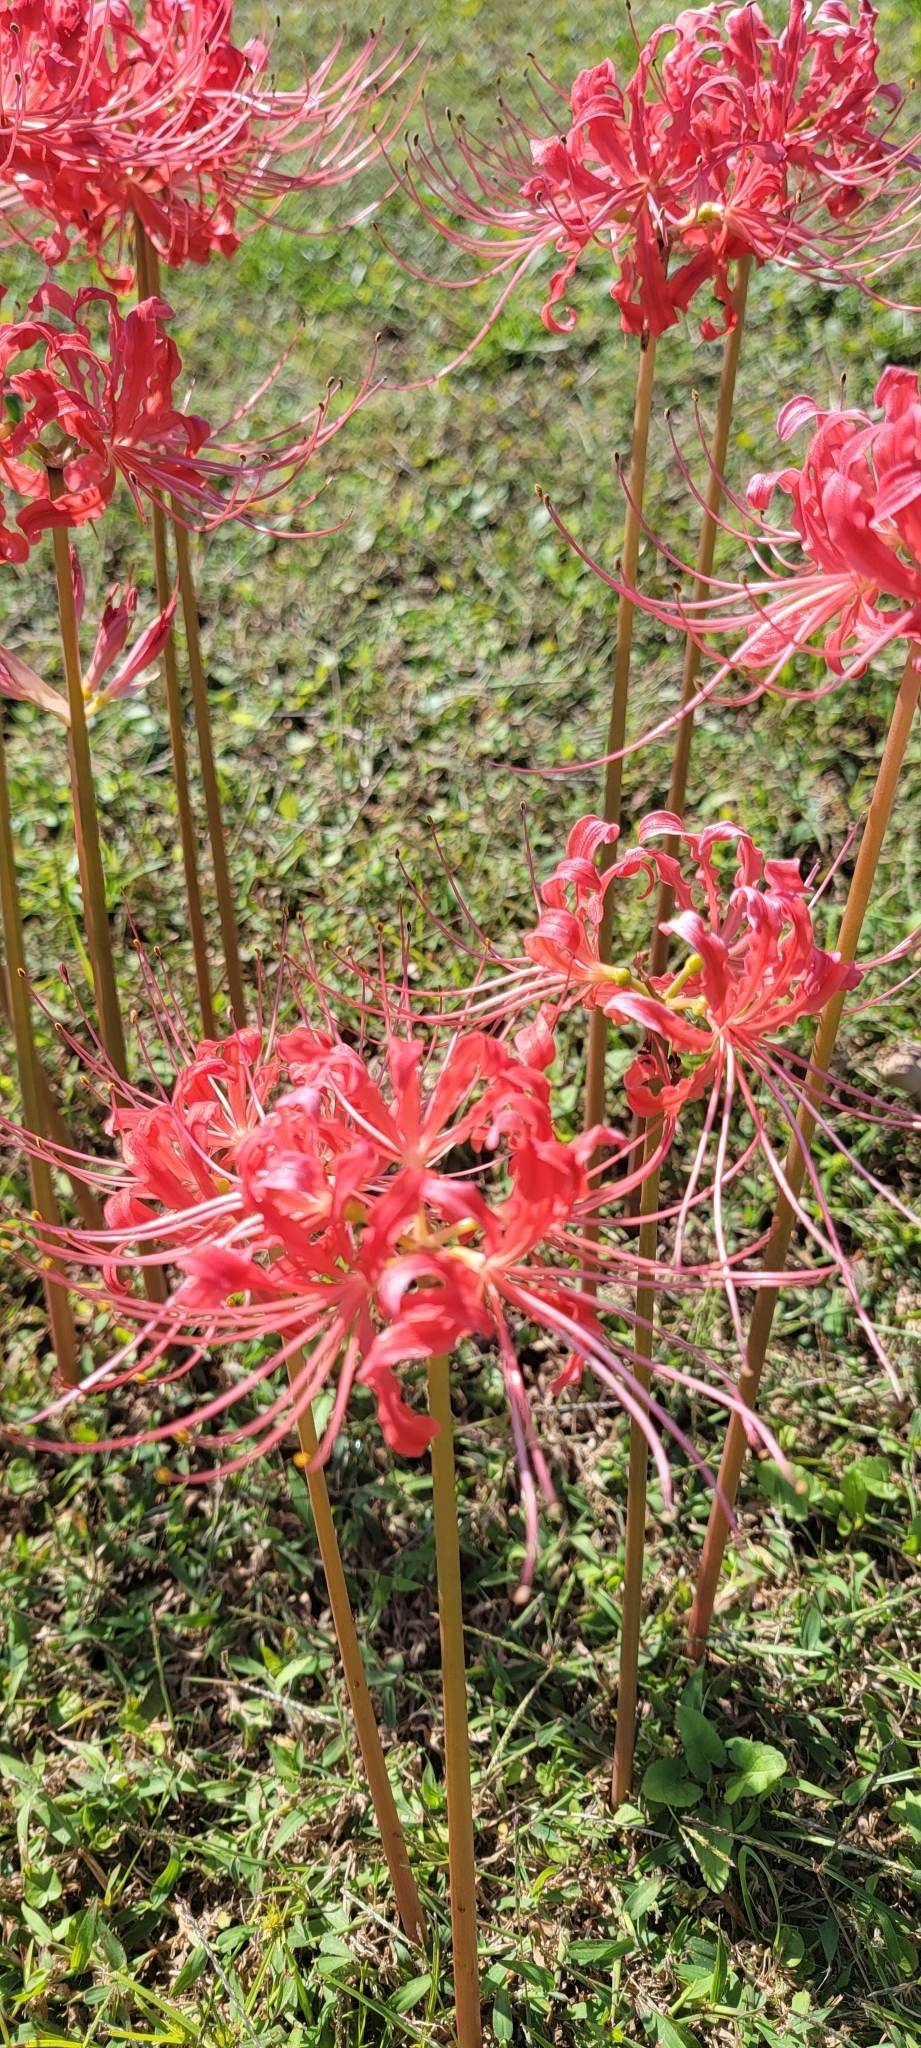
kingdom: Plantae
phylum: Tracheophyta
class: Liliopsida
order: Asparagales
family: Amaryllidaceae
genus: Lycoris
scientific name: Lycoris radiata
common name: Red spider lily
